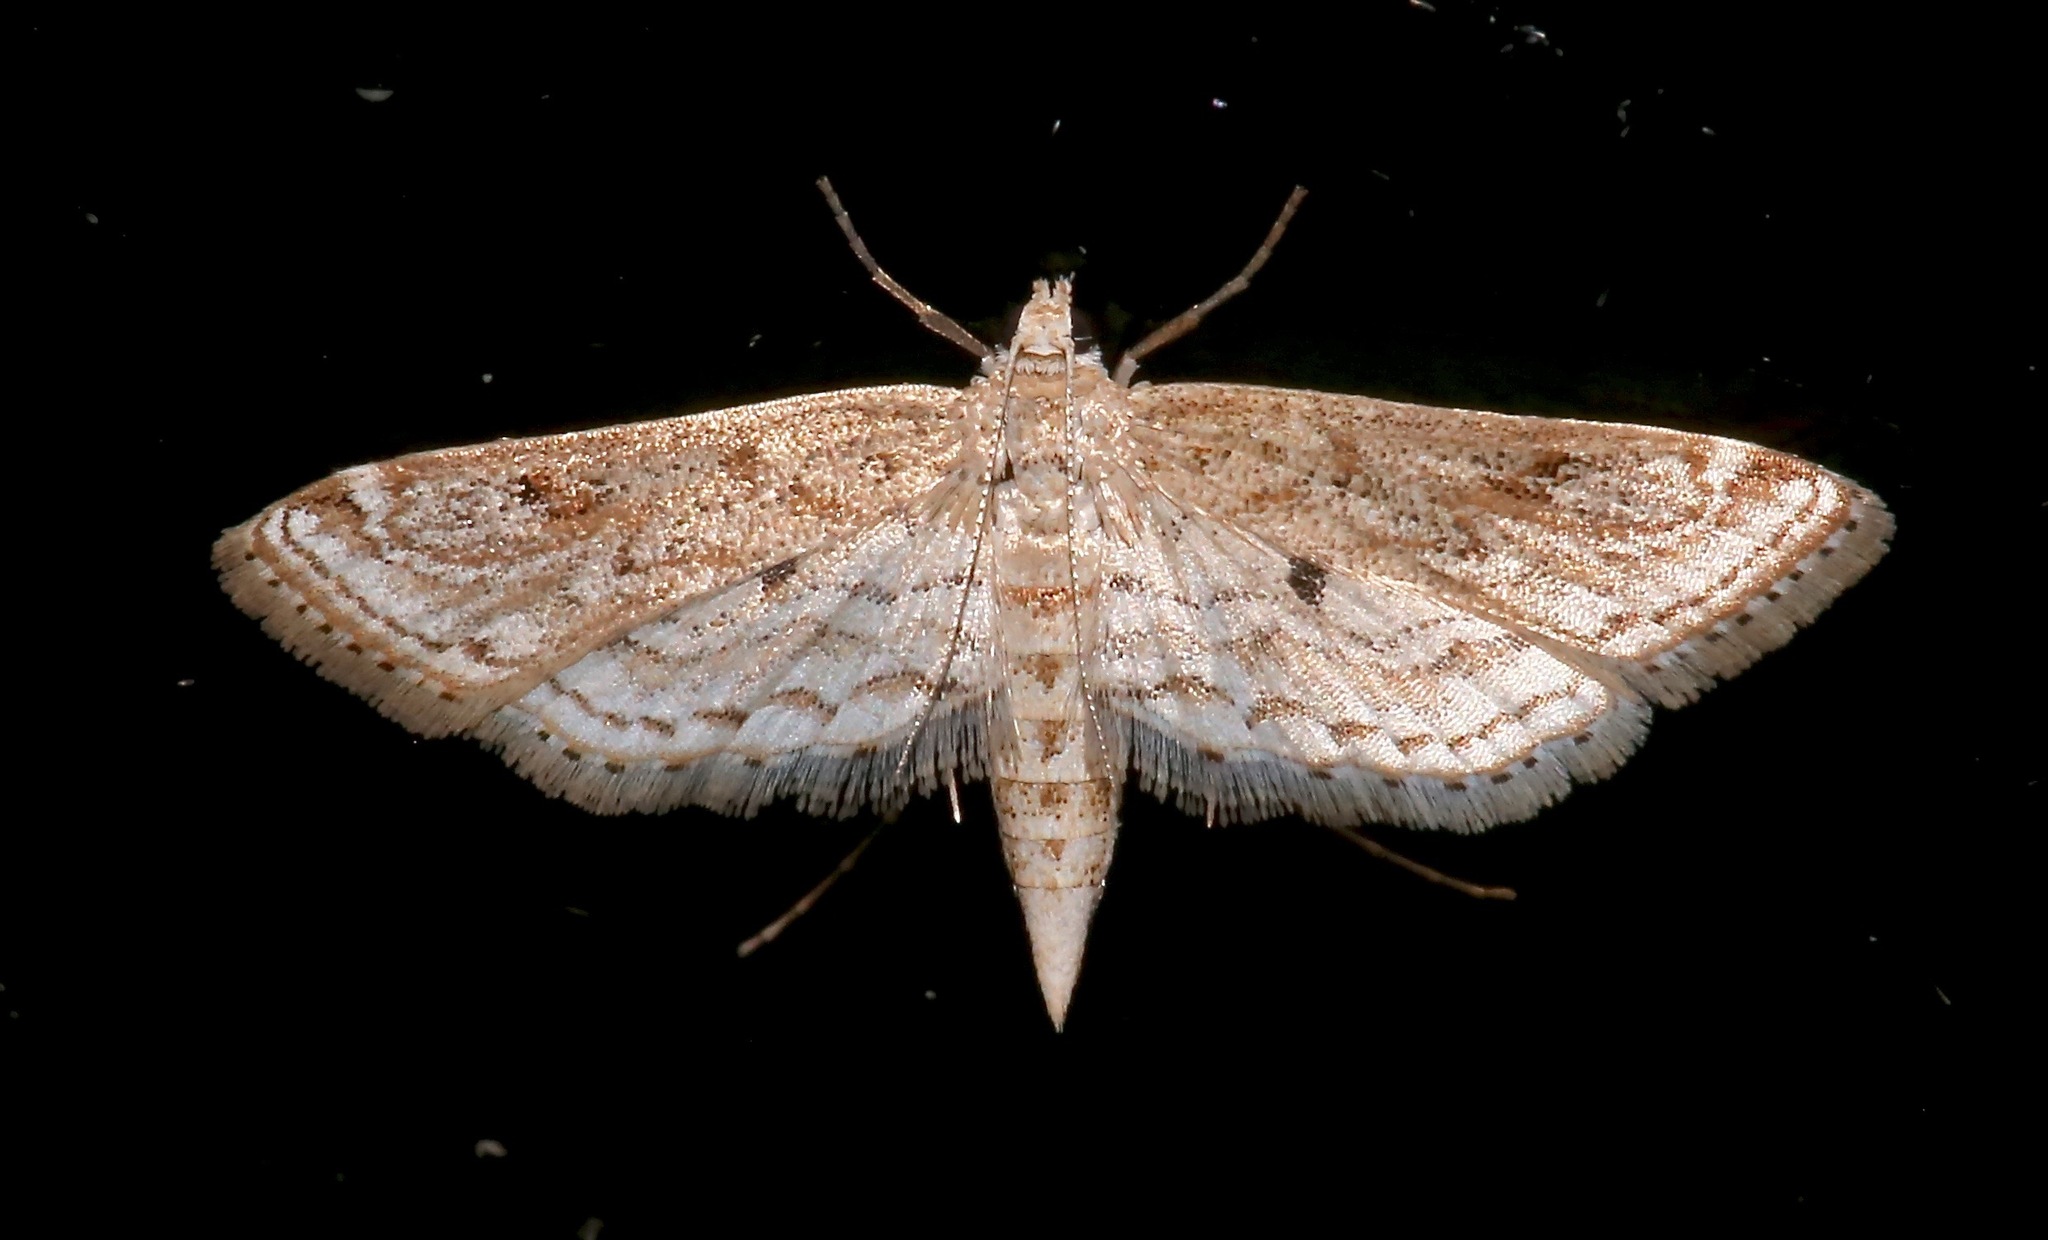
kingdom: Animalia
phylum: Arthropoda
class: Insecta
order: Lepidoptera
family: Crambidae
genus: Parapoynx
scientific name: Parapoynx allionealis
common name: Bladderwort casemaker
